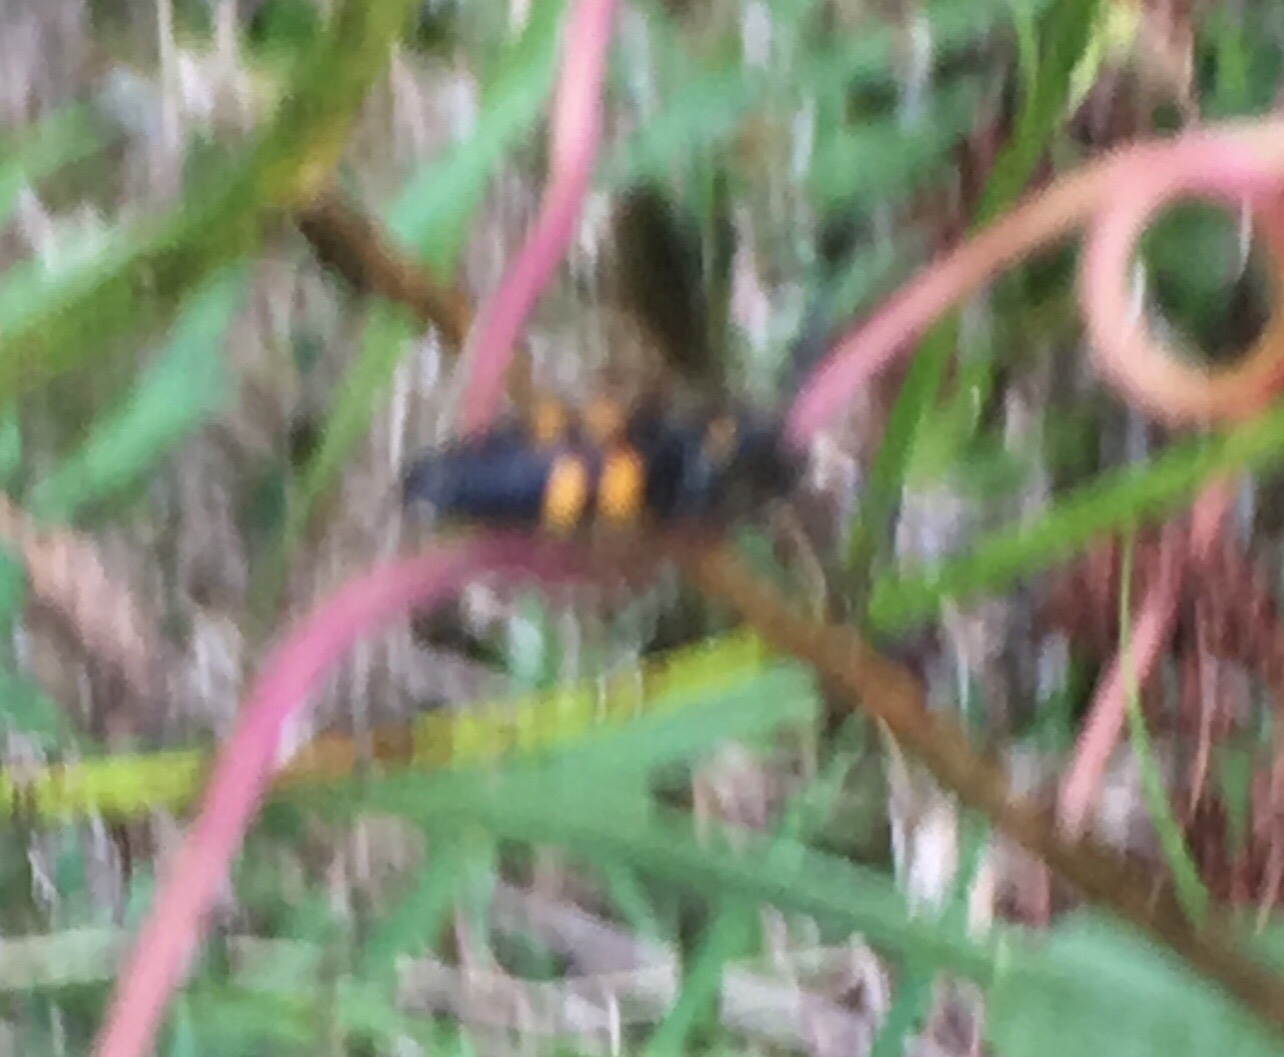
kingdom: Animalia
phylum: Arthropoda
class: Insecta
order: Hymenoptera
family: Scoliidae
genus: Scolia
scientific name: Scolia nobilitata
